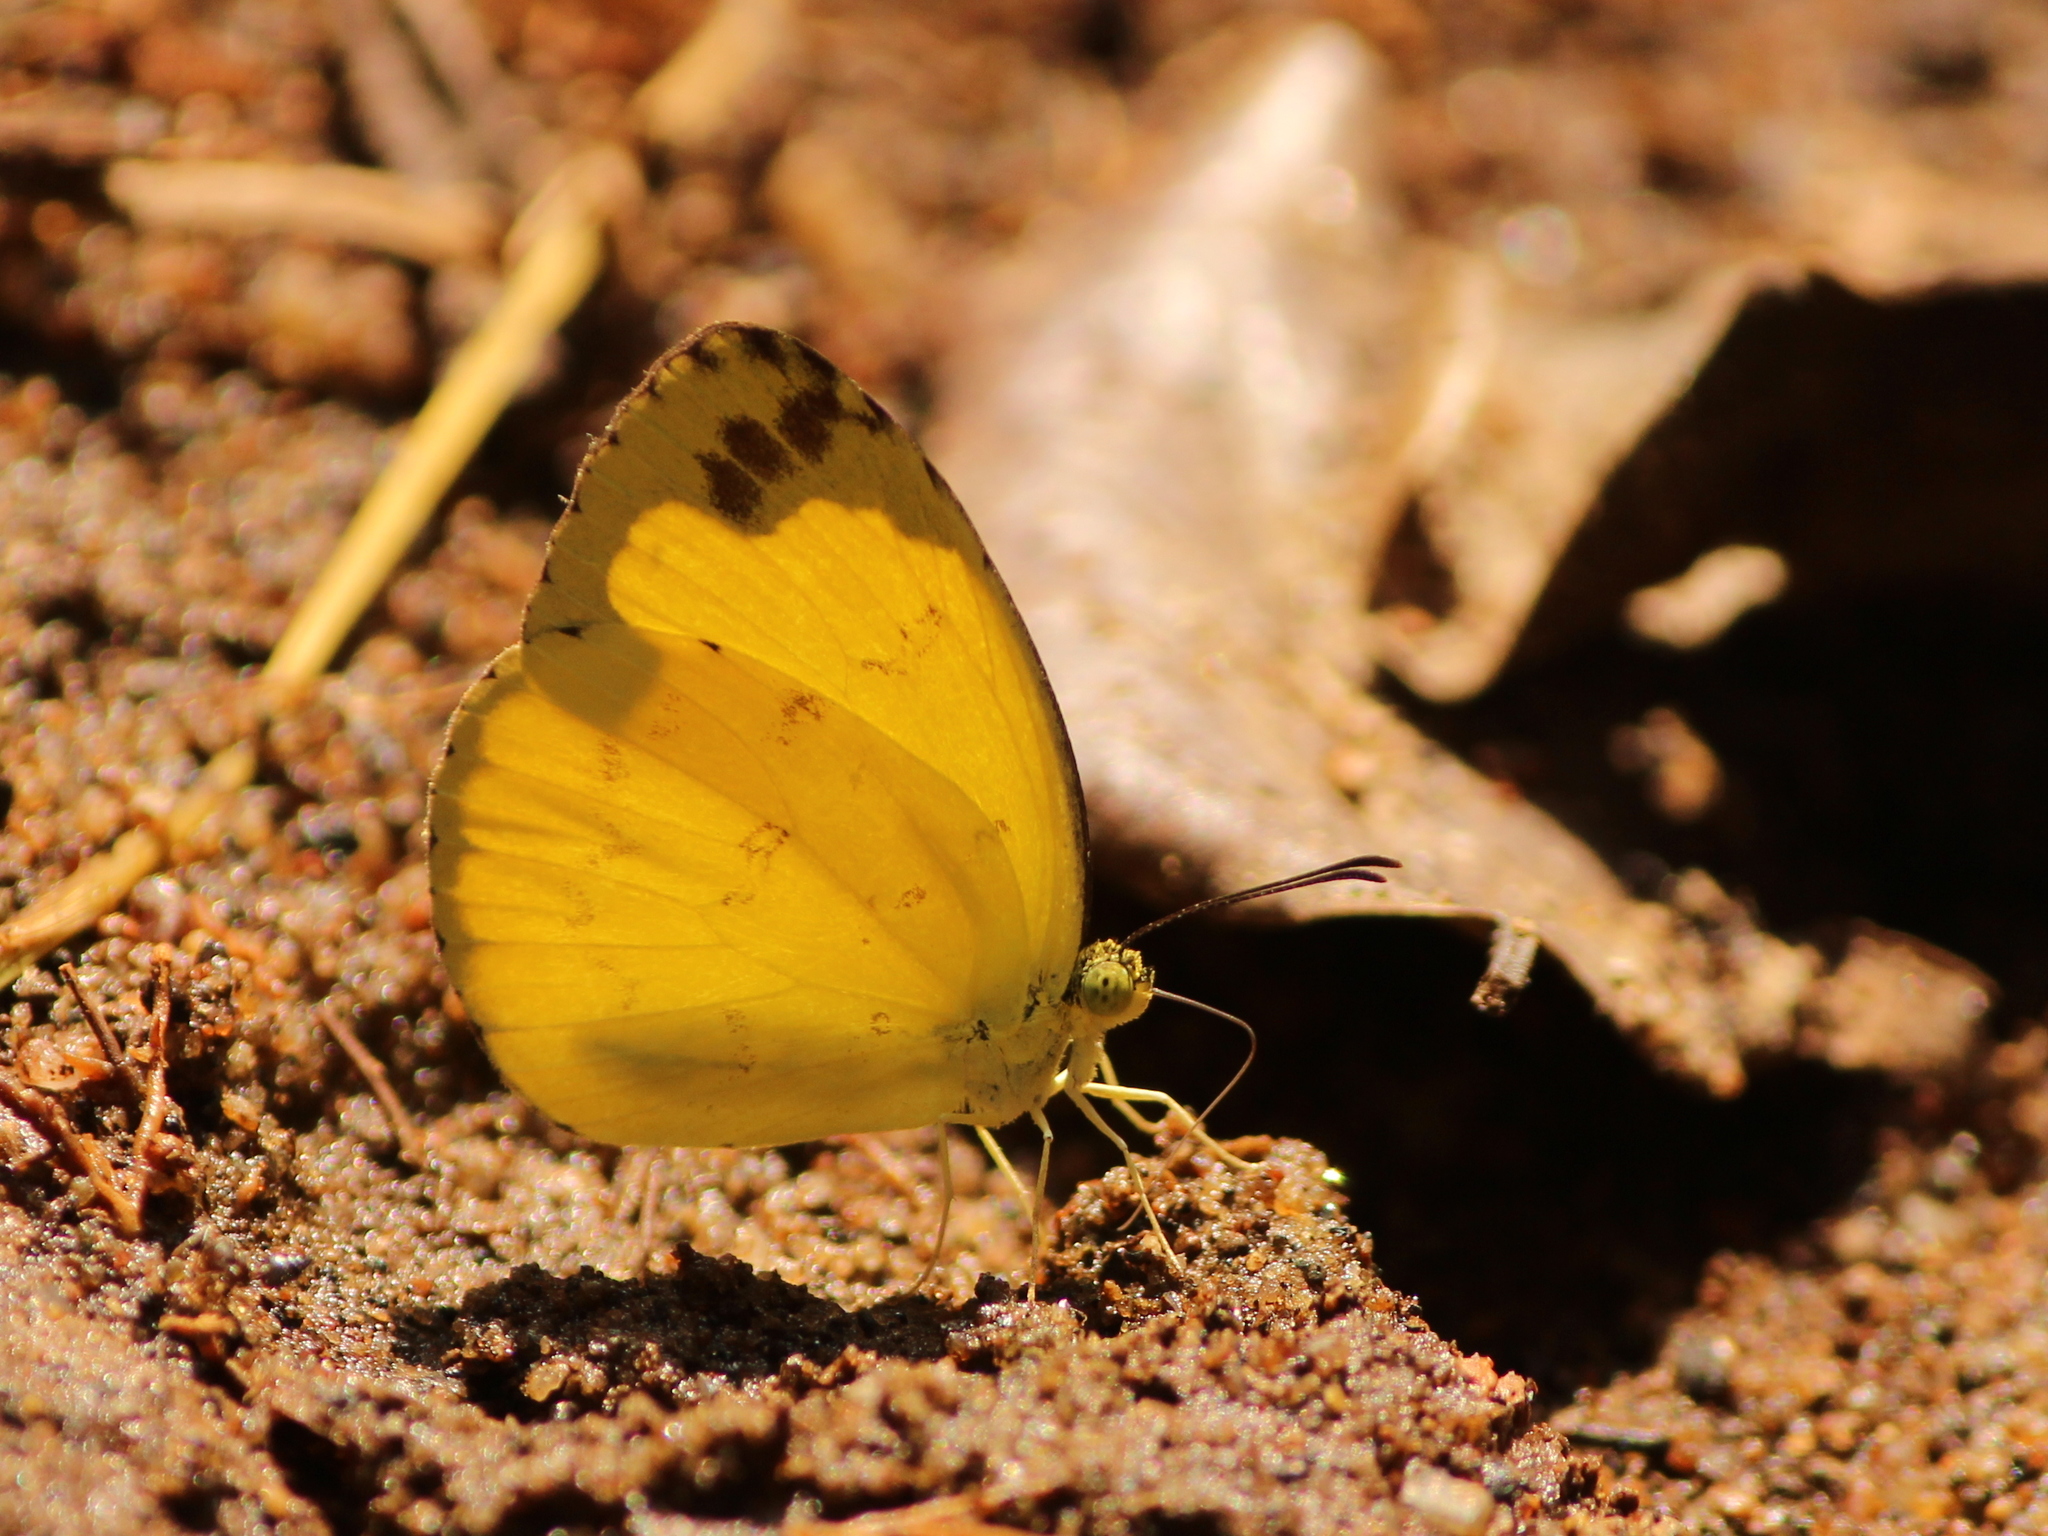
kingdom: Animalia
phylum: Arthropoda
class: Insecta
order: Lepidoptera
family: Pieridae
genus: Eurema
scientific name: Eurema andersoni
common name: One-spot yellow grass
